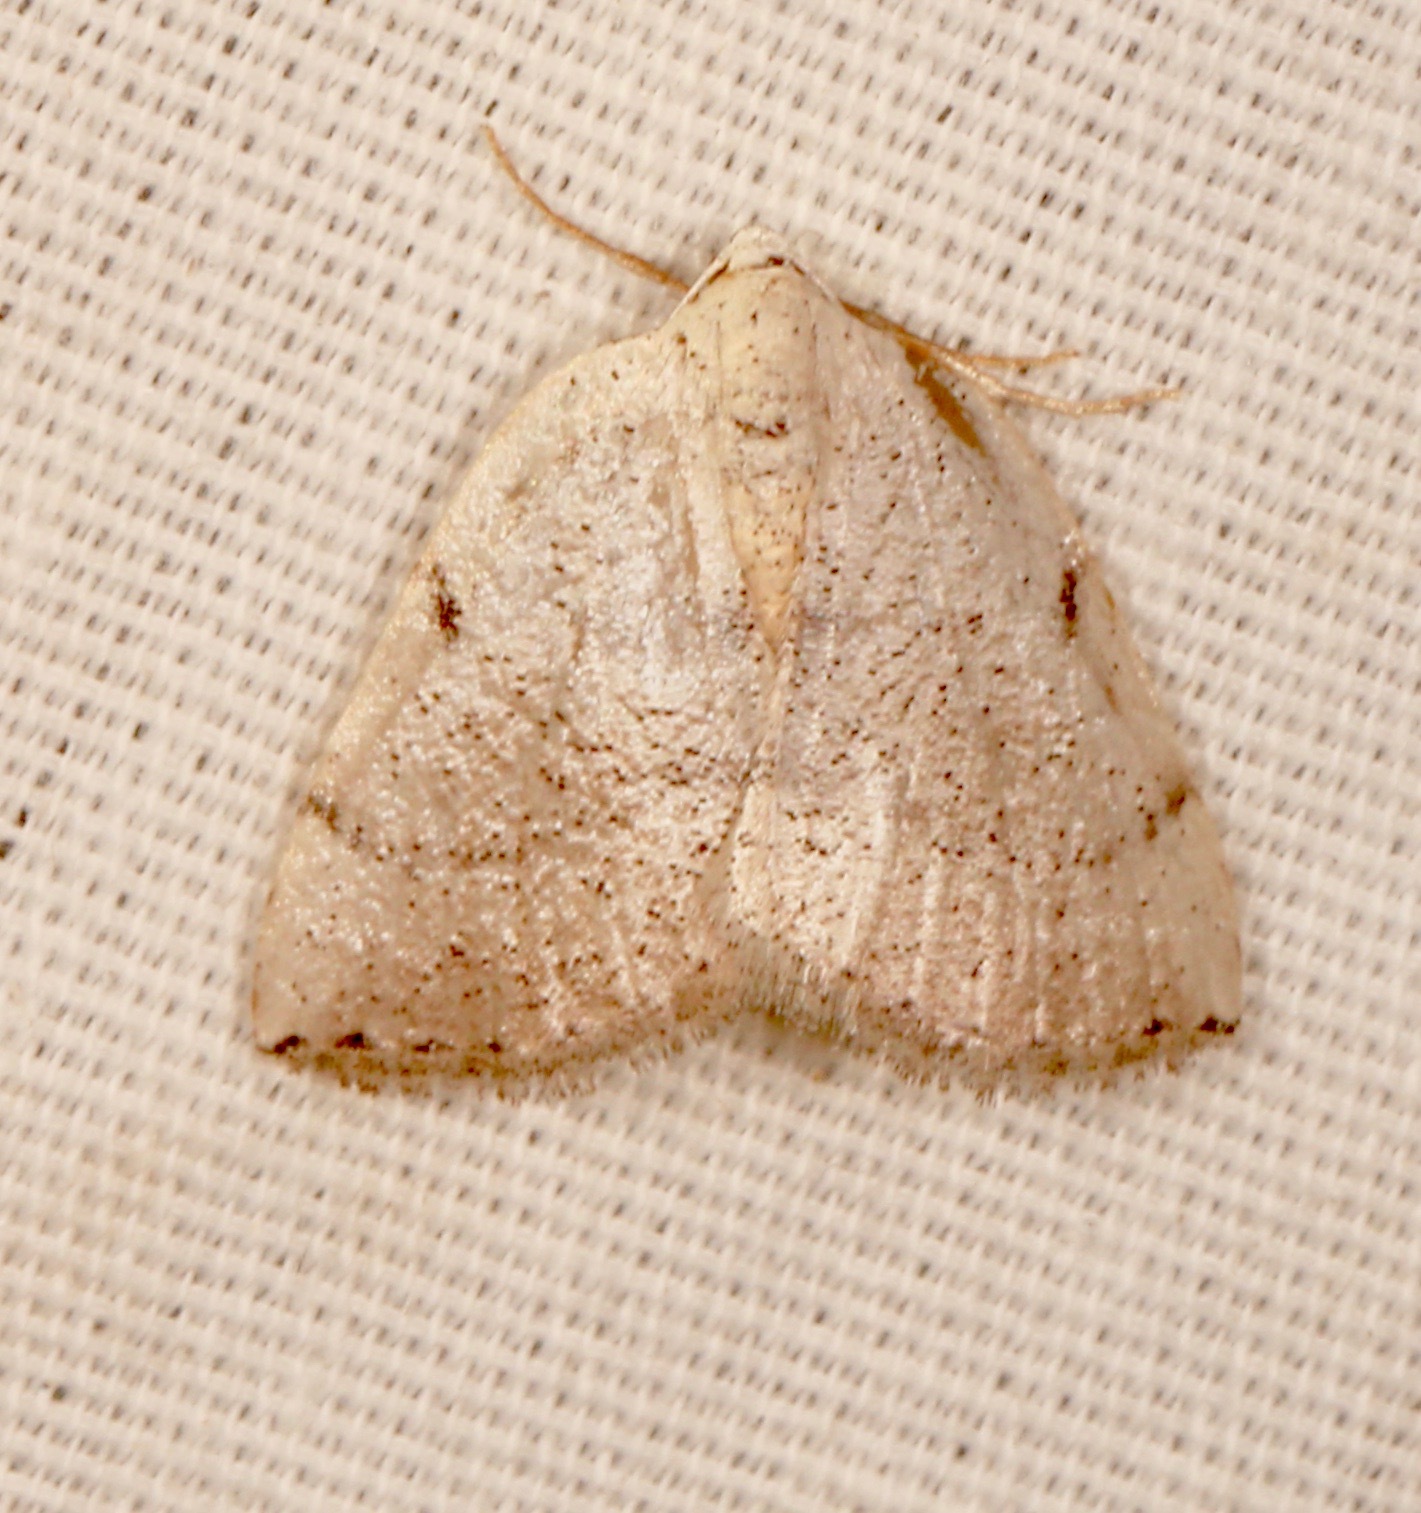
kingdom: Animalia
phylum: Arthropoda
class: Insecta
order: Lepidoptera
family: Geometridae
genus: Lomographa
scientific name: Lomographa elsinora
